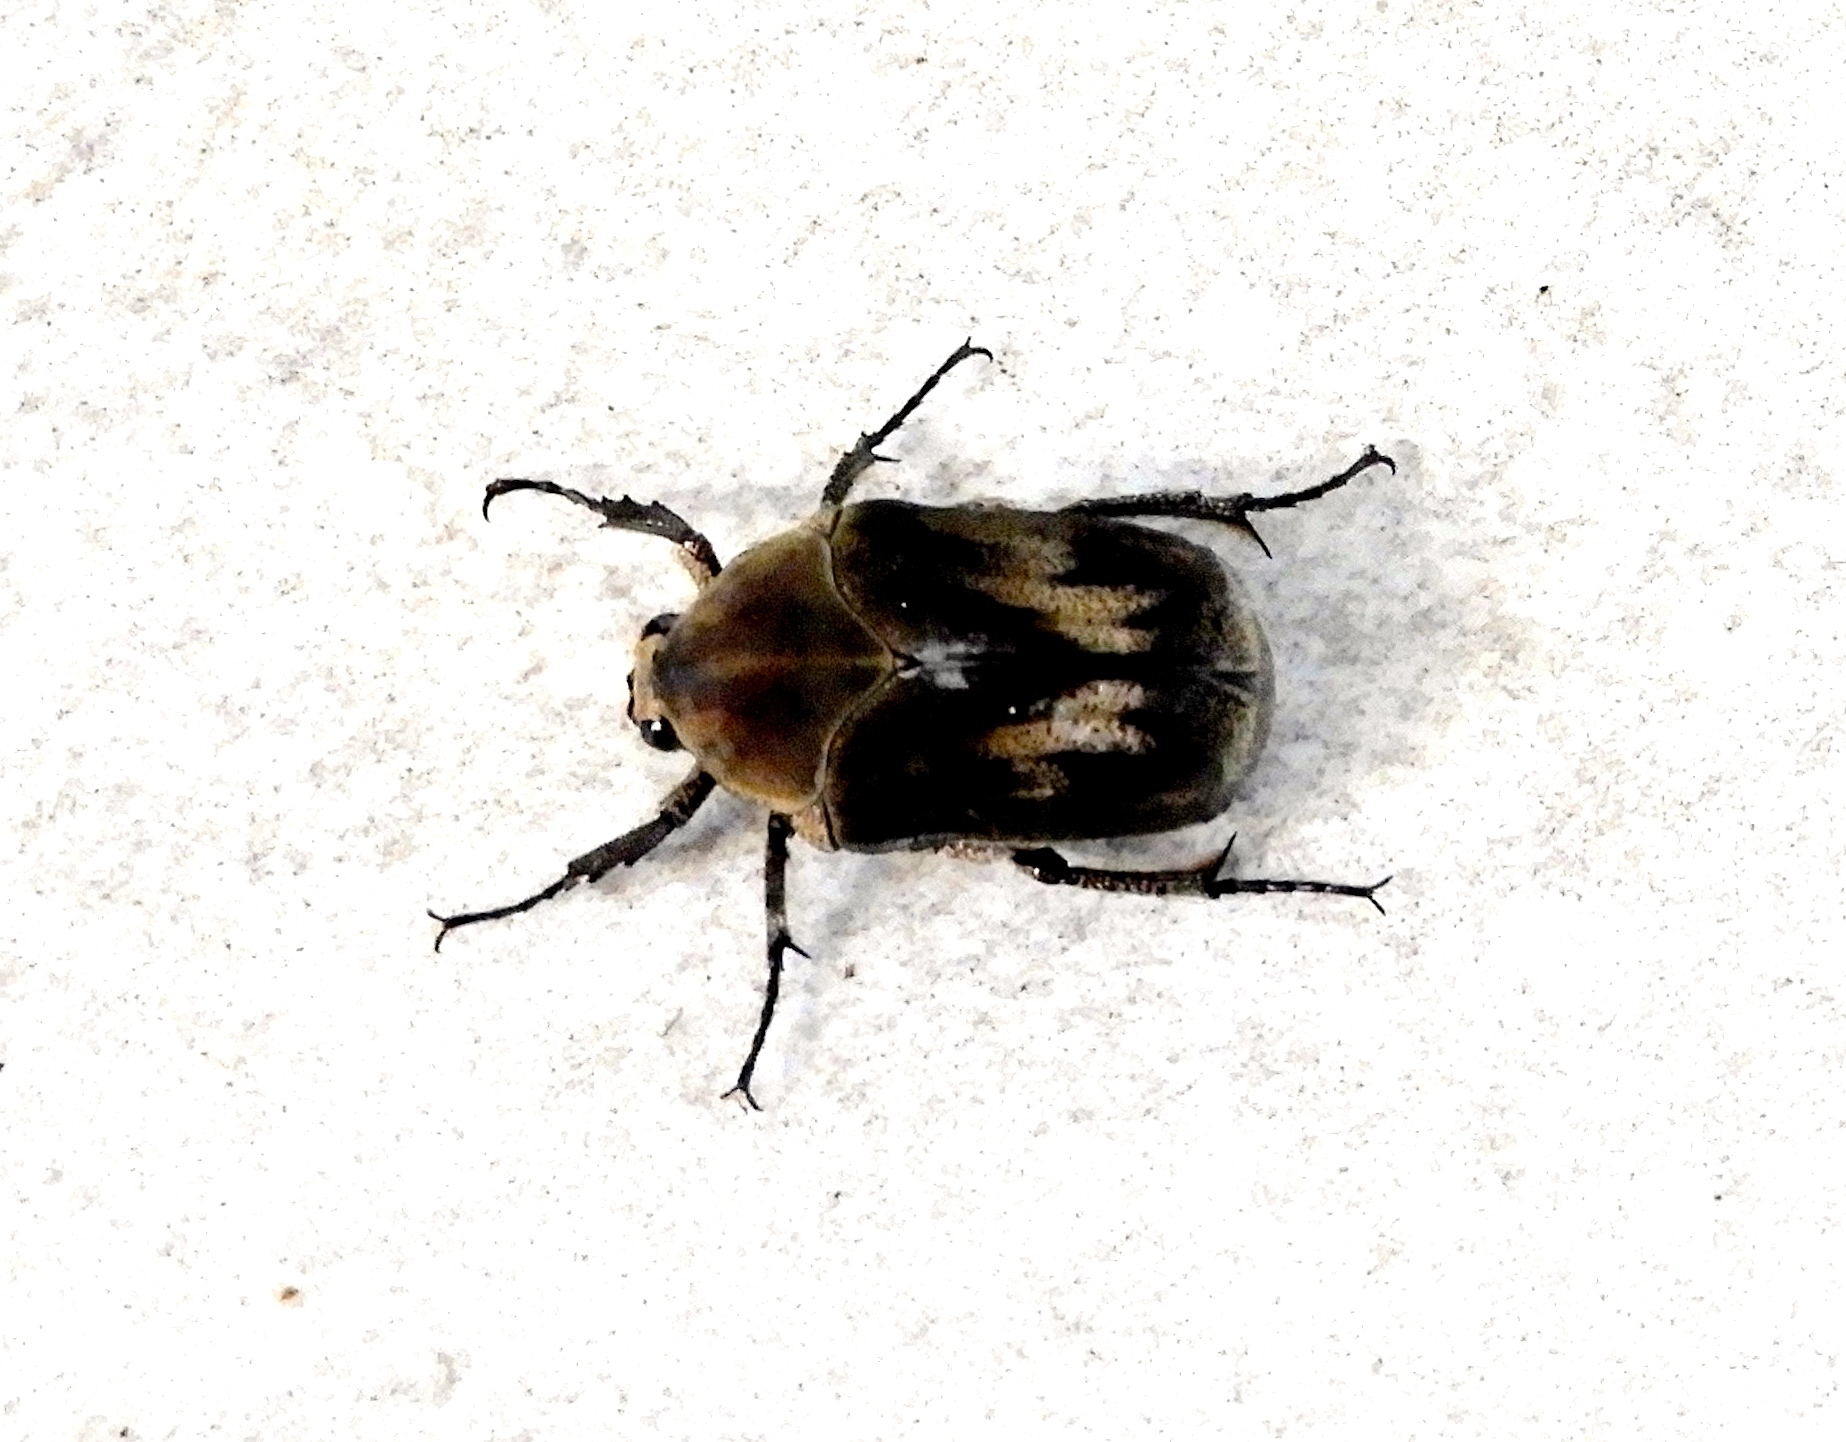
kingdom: Animalia
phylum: Arthropoda
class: Insecta
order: Coleoptera
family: Scarabaeidae
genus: Hologymnetis
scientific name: Hologymnetis
